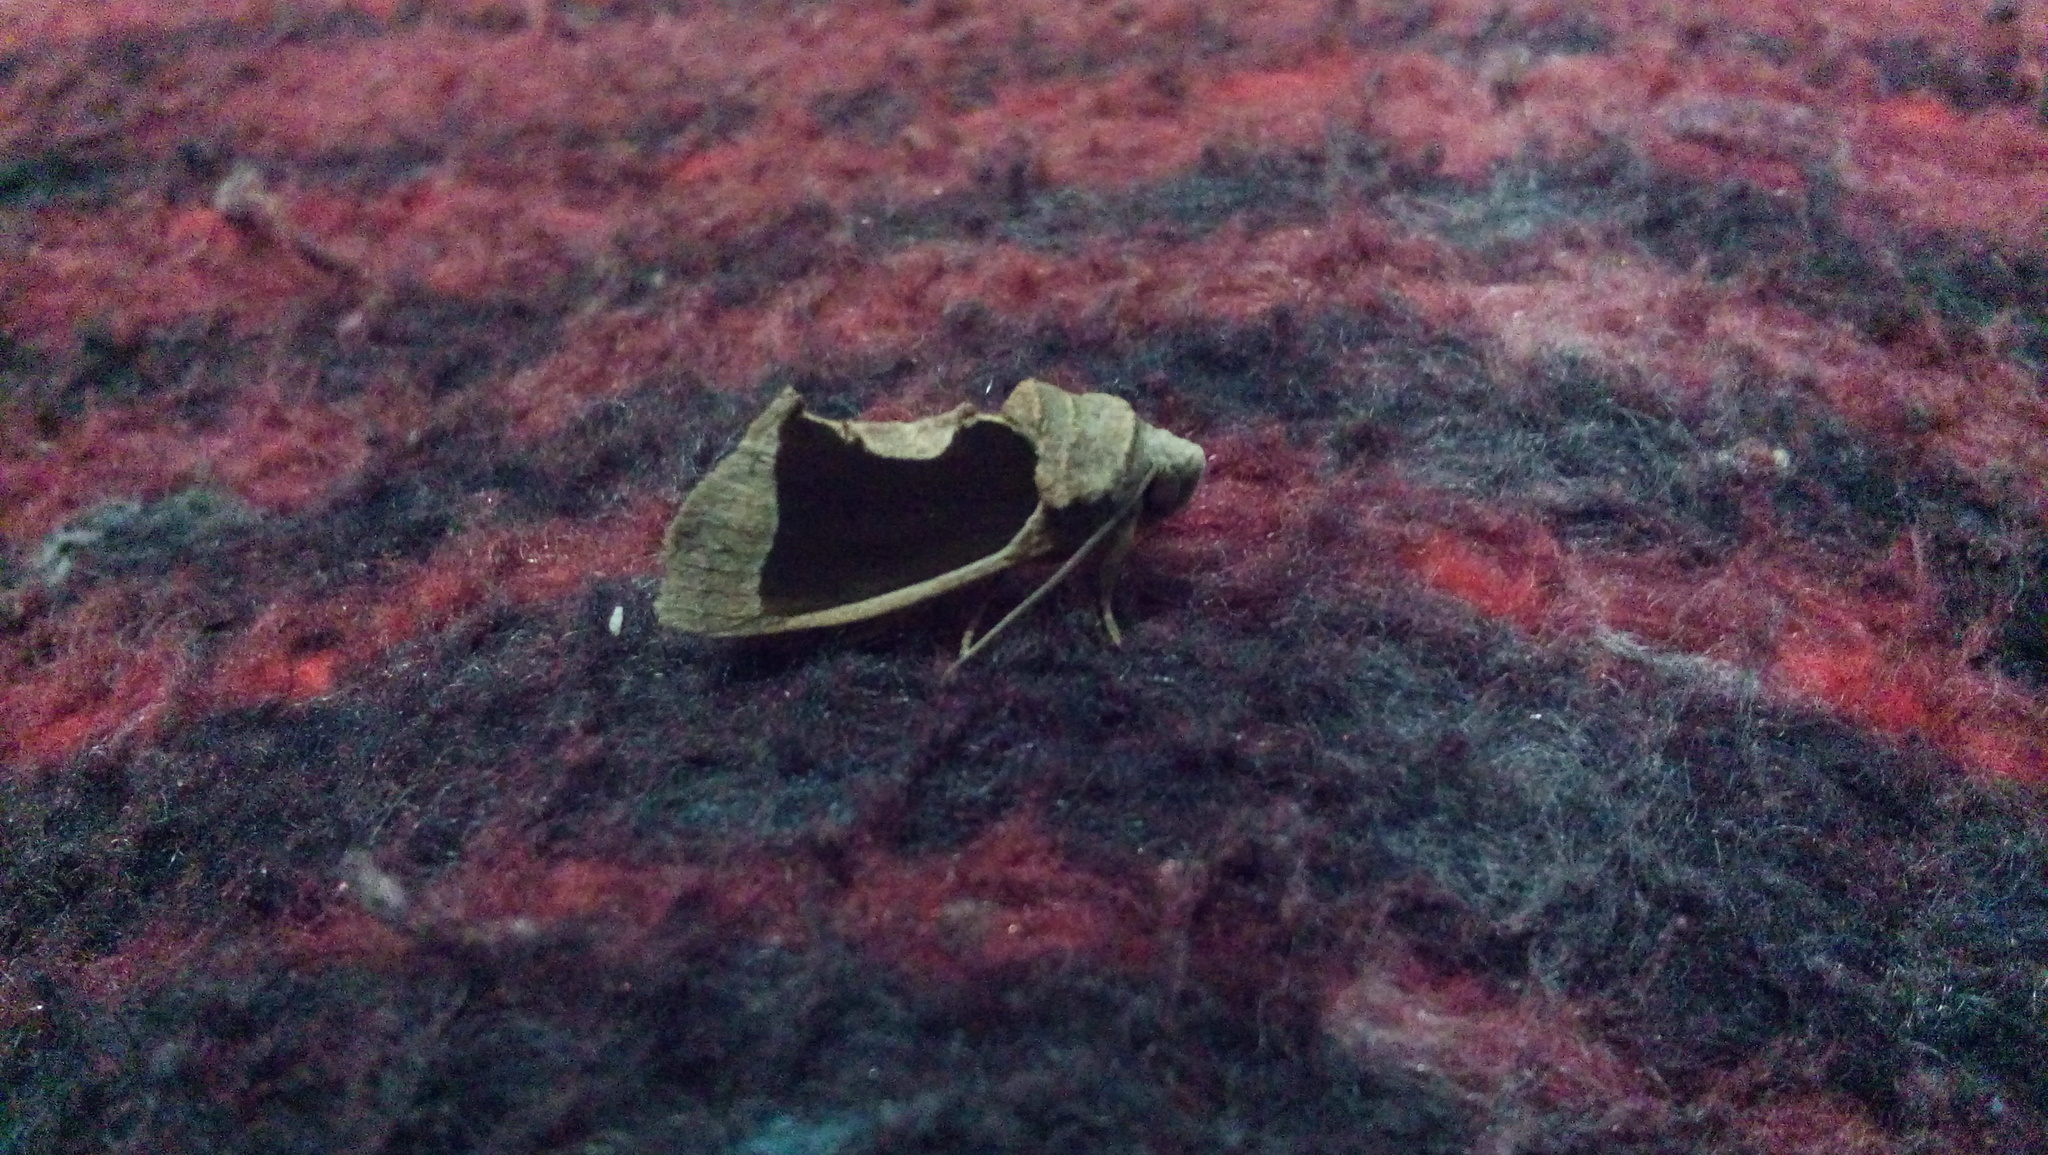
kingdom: Animalia
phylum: Arthropoda
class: Insecta
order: Lepidoptera
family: Erebidae
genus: Gonodonta
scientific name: Gonodonta sinaldus
